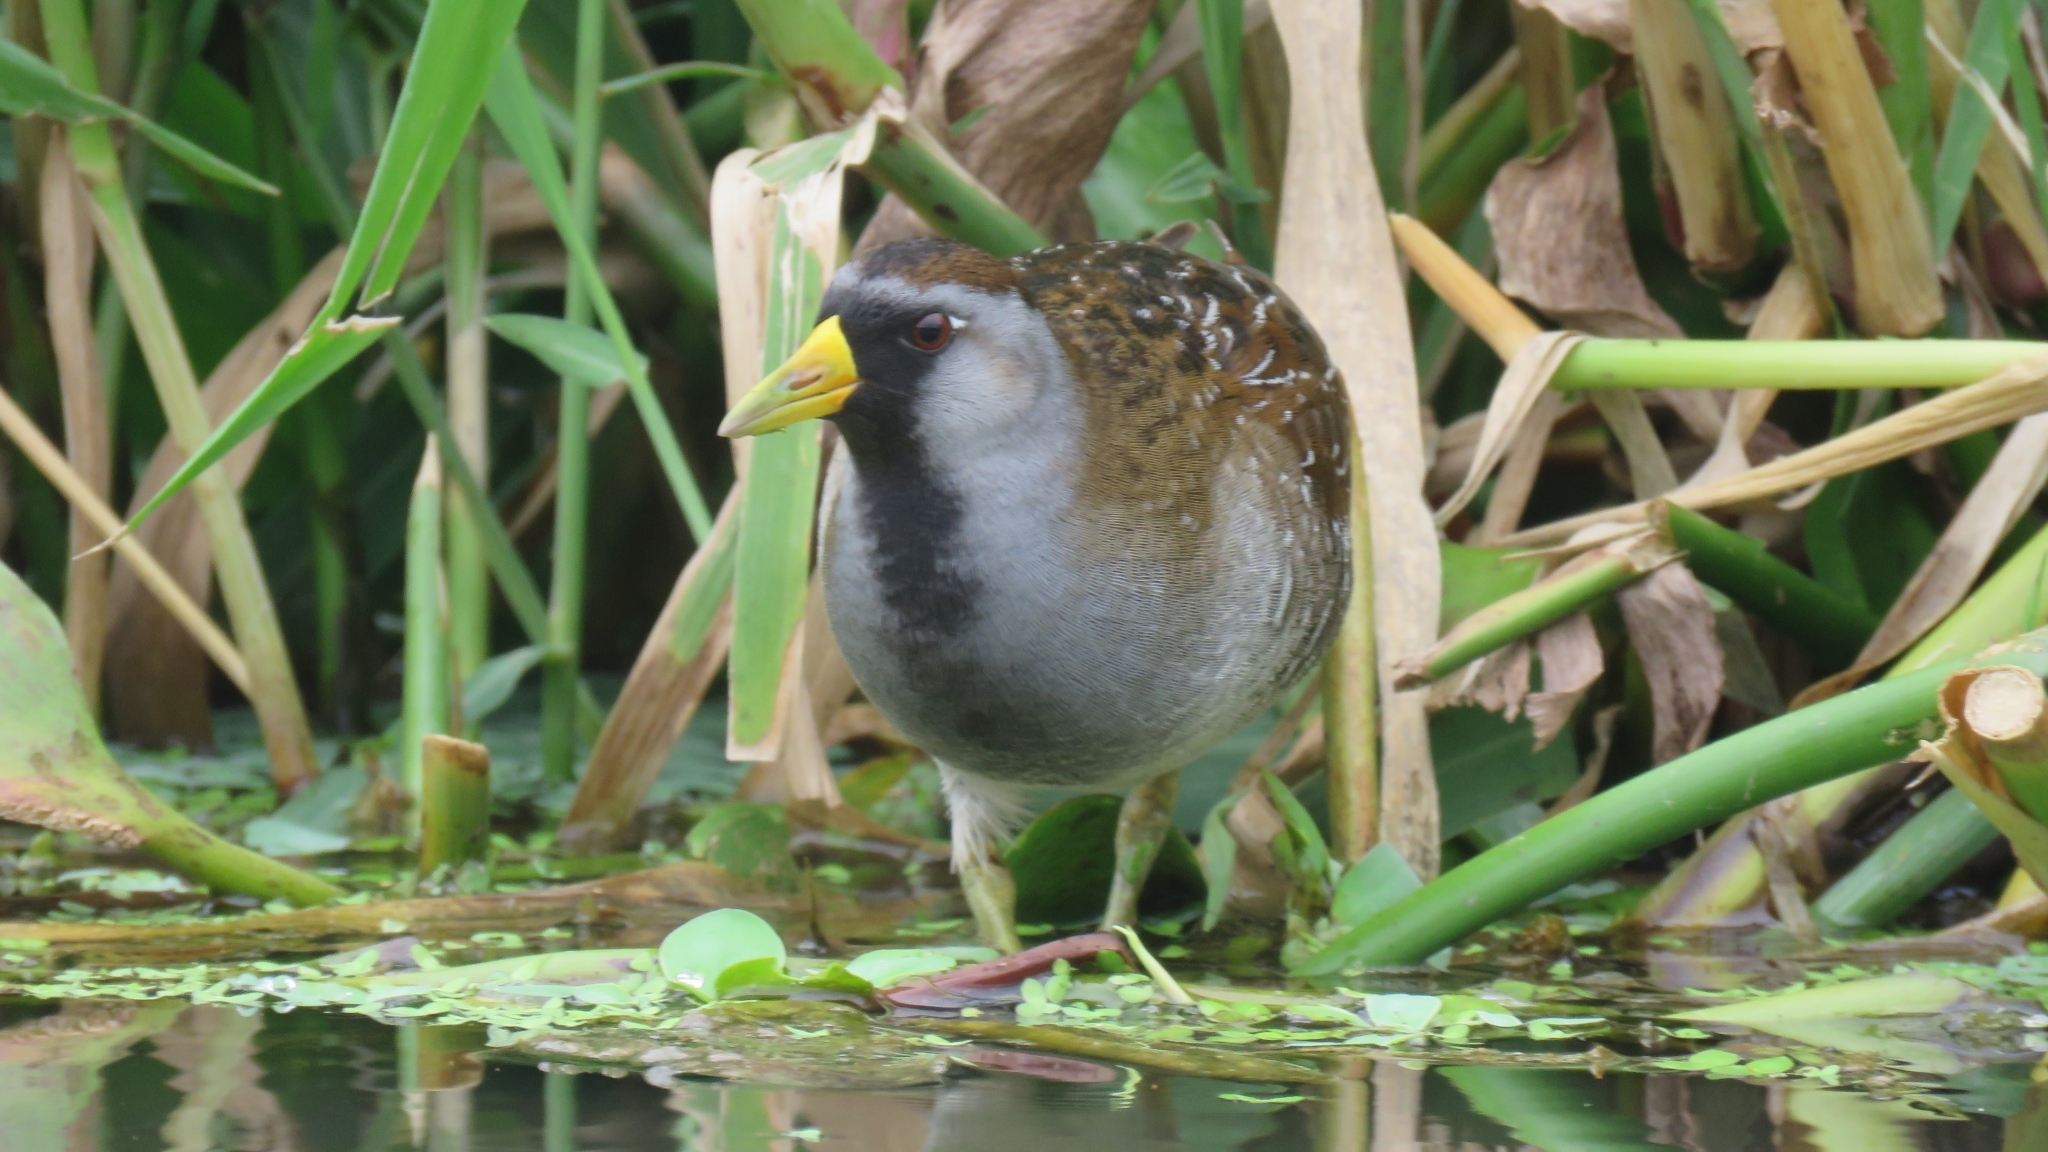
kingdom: Animalia
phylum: Chordata
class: Aves
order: Gruiformes
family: Rallidae
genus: Porzana
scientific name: Porzana carolina
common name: Sora
